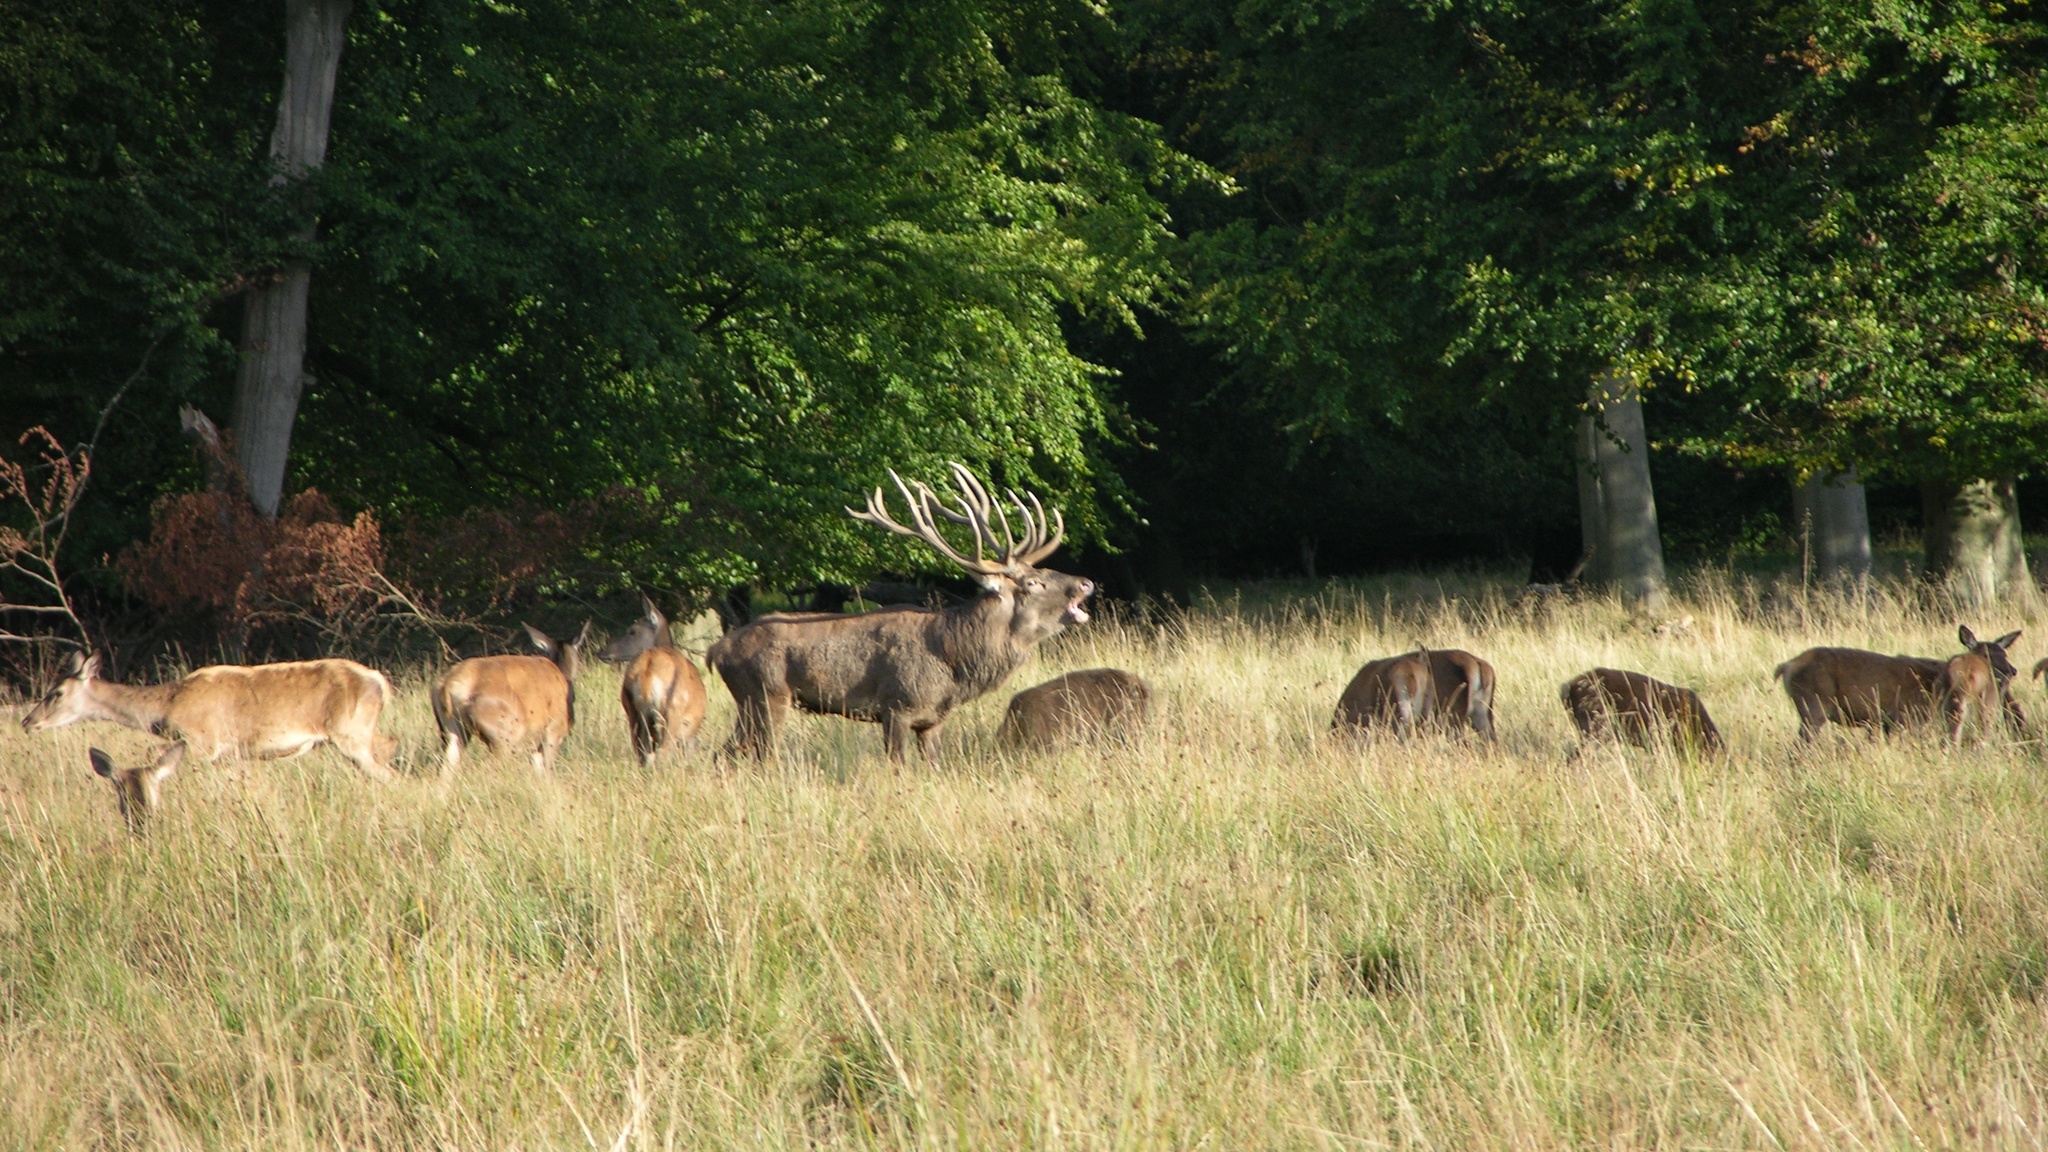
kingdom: Animalia
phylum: Chordata
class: Mammalia
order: Artiodactyla
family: Cervidae
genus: Cervus
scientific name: Cervus elaphus
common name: Red deer
